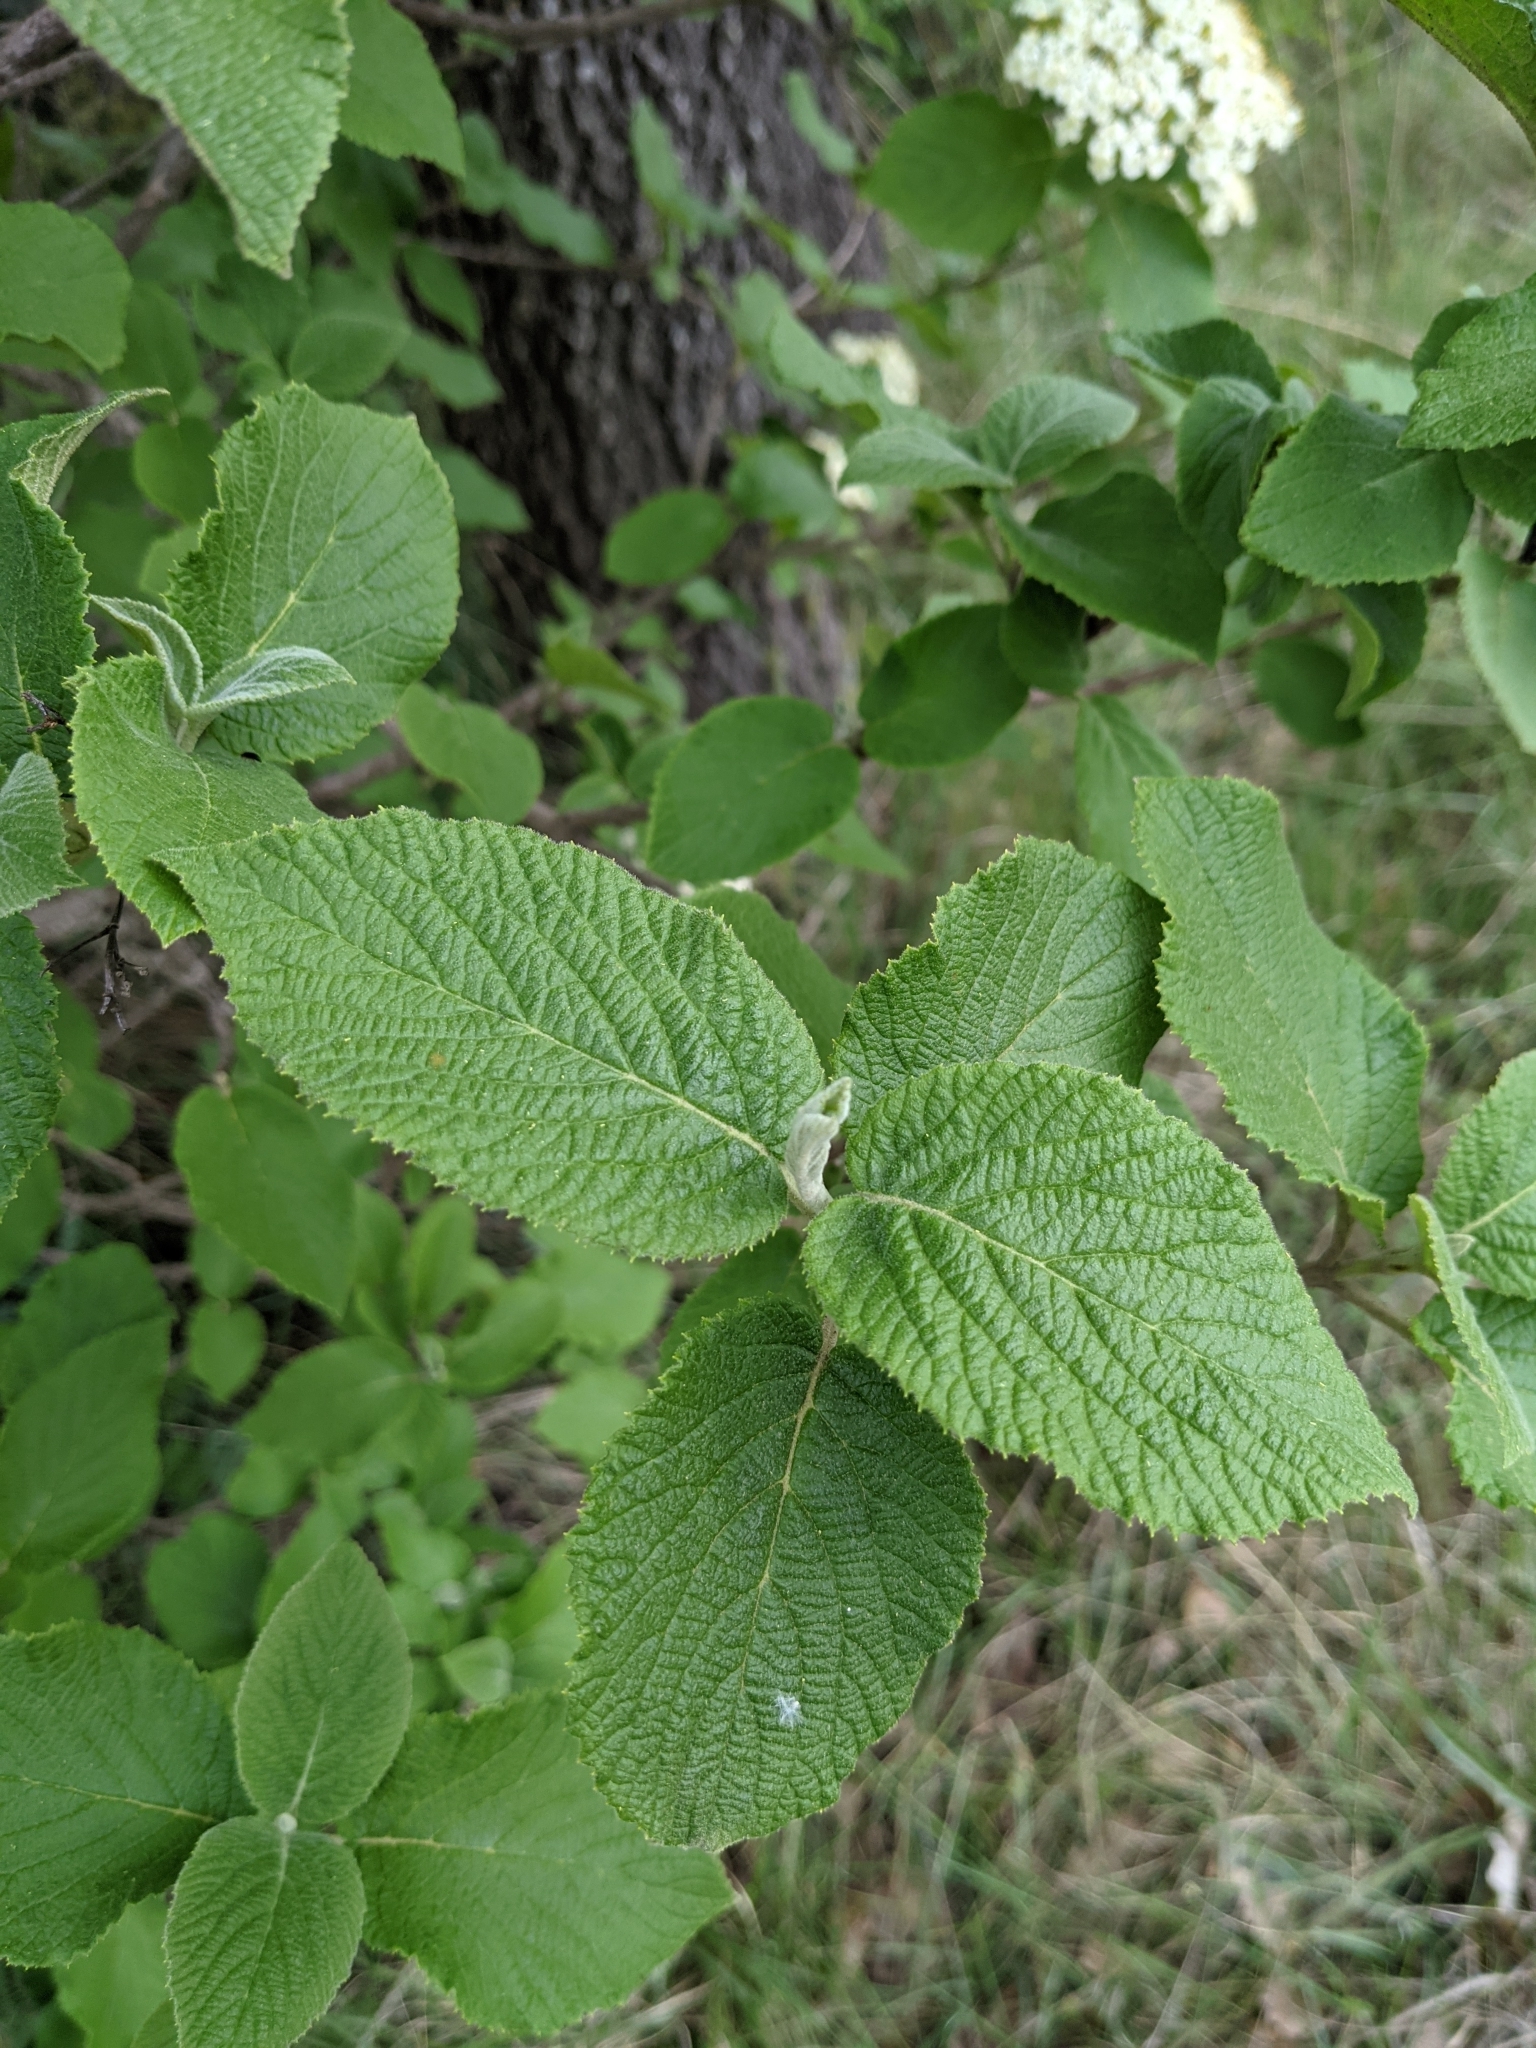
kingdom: Plantae
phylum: Tracheophyta
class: Magnoliopsida
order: Dipsacales
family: Viburnaceae
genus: Viburnum
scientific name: Viburnum lantana
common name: Wayfaring tree
